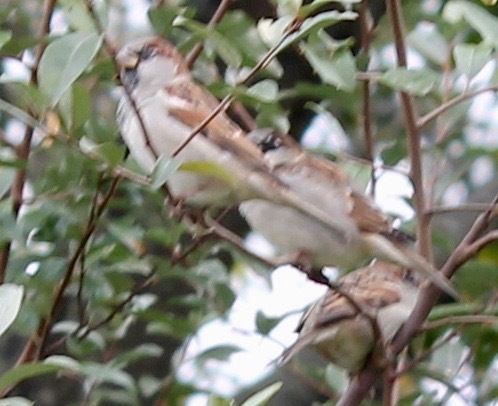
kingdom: Animalia
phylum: Chordata
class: Aves
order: Passeriformes
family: Passeridae
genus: Passer
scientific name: Passer domesticus
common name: House sparrow
